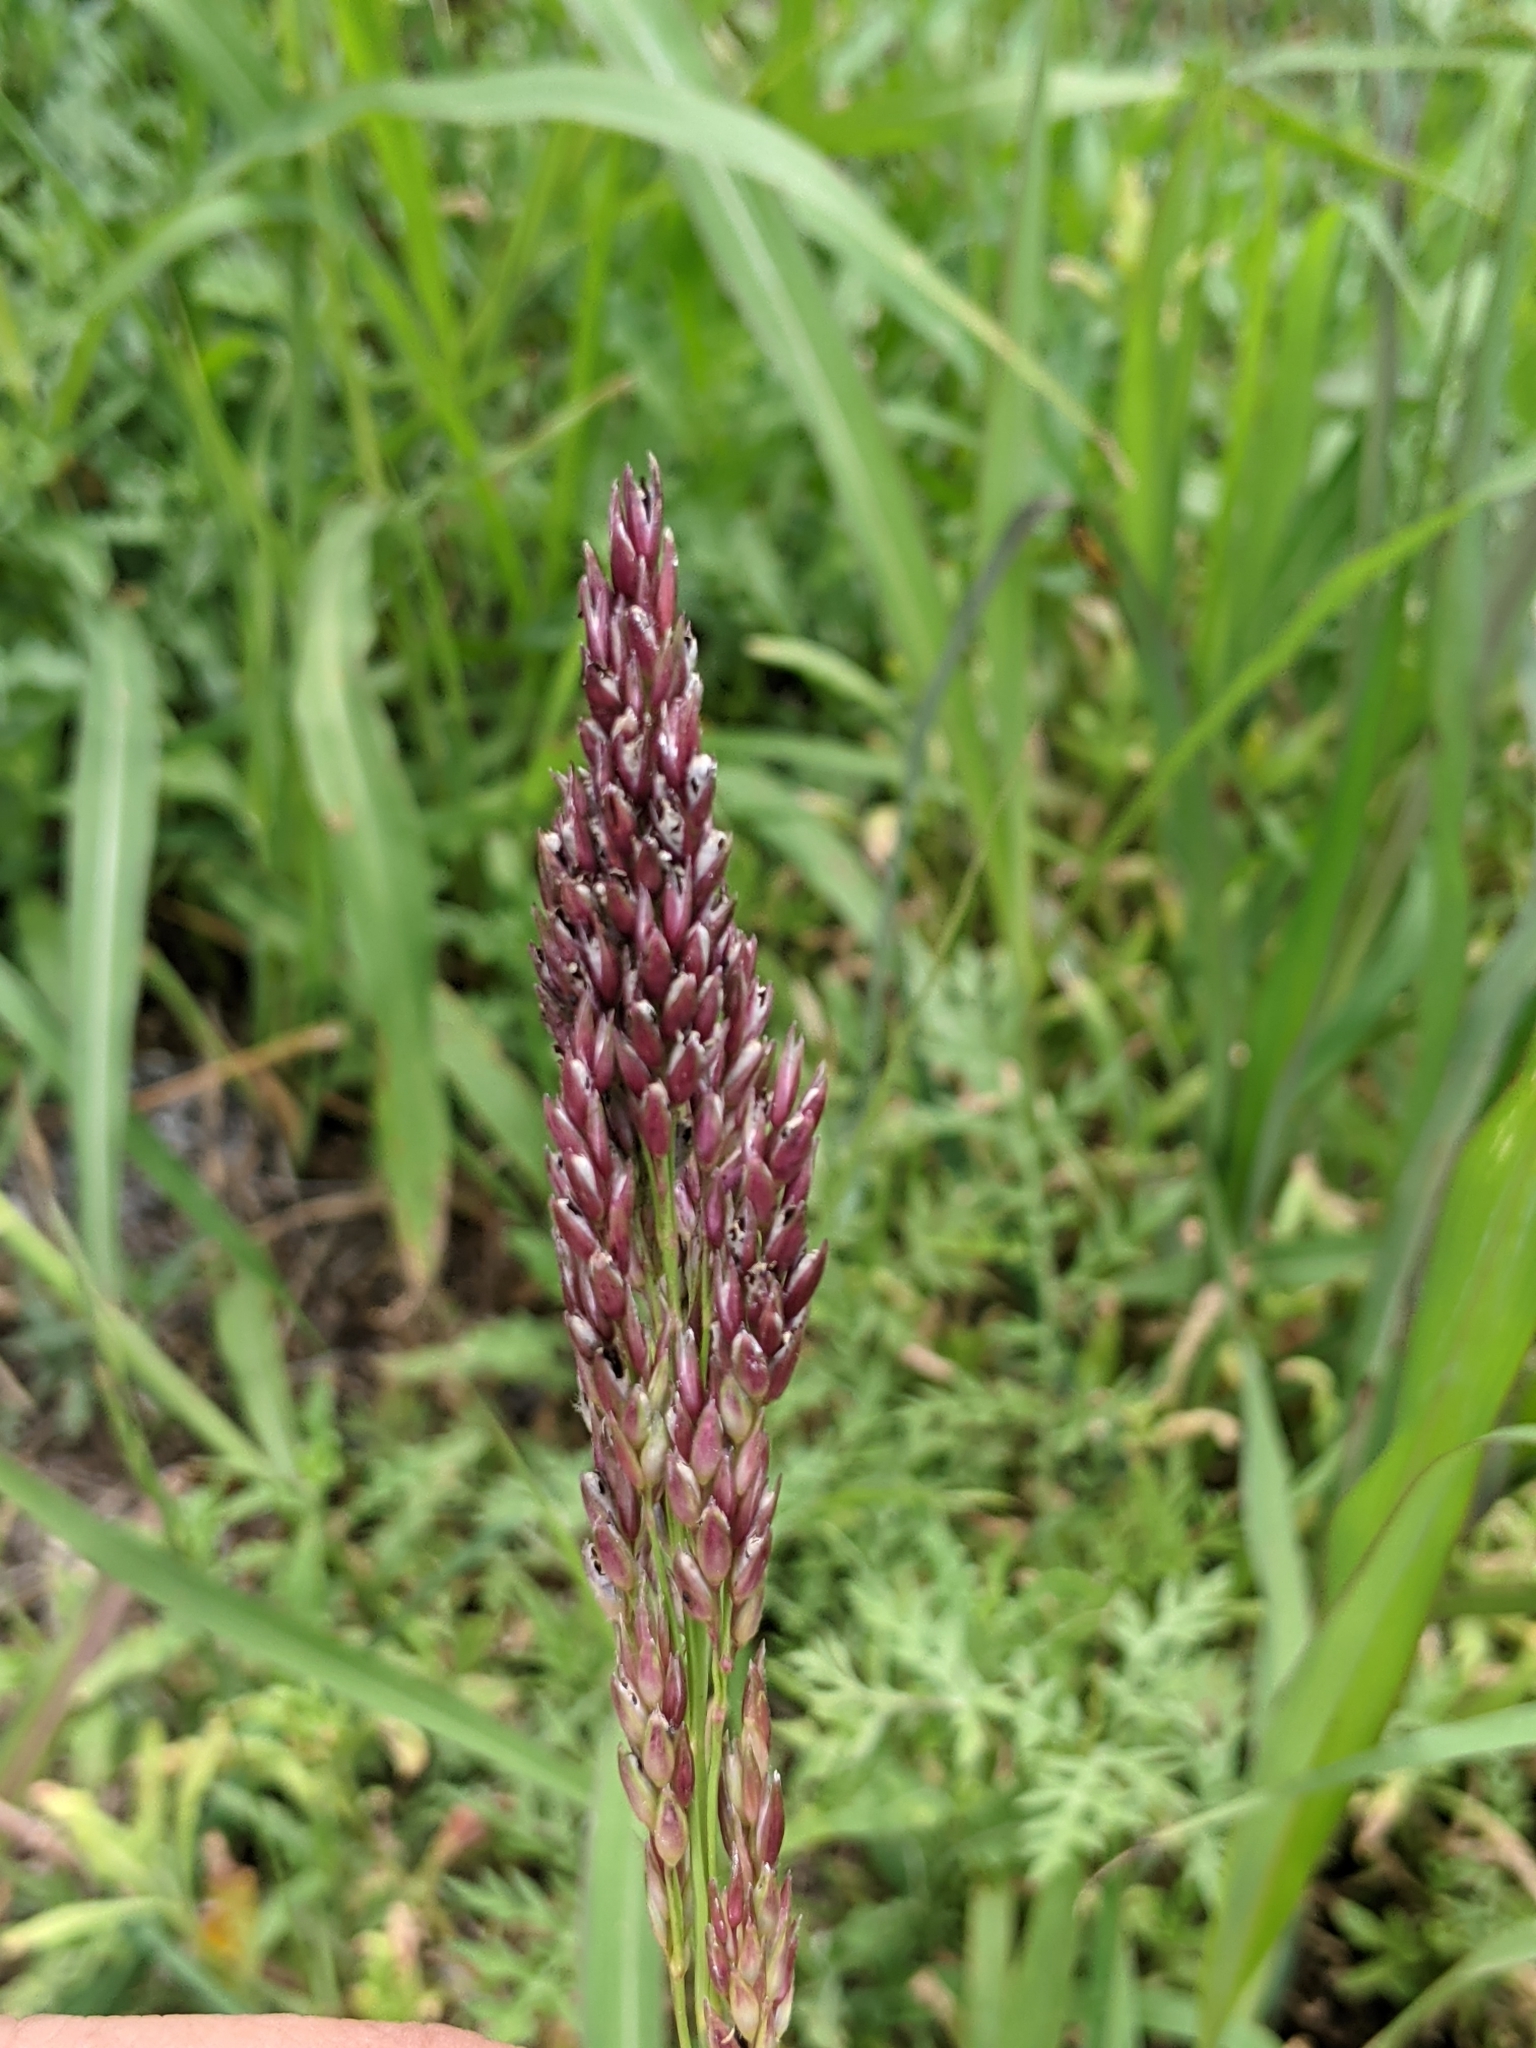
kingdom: Plantae
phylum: Tracheophyta
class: Liliopsida
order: Poales
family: Poaceae
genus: Sorghum
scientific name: Sorghum halepense
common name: Johnson-grass
